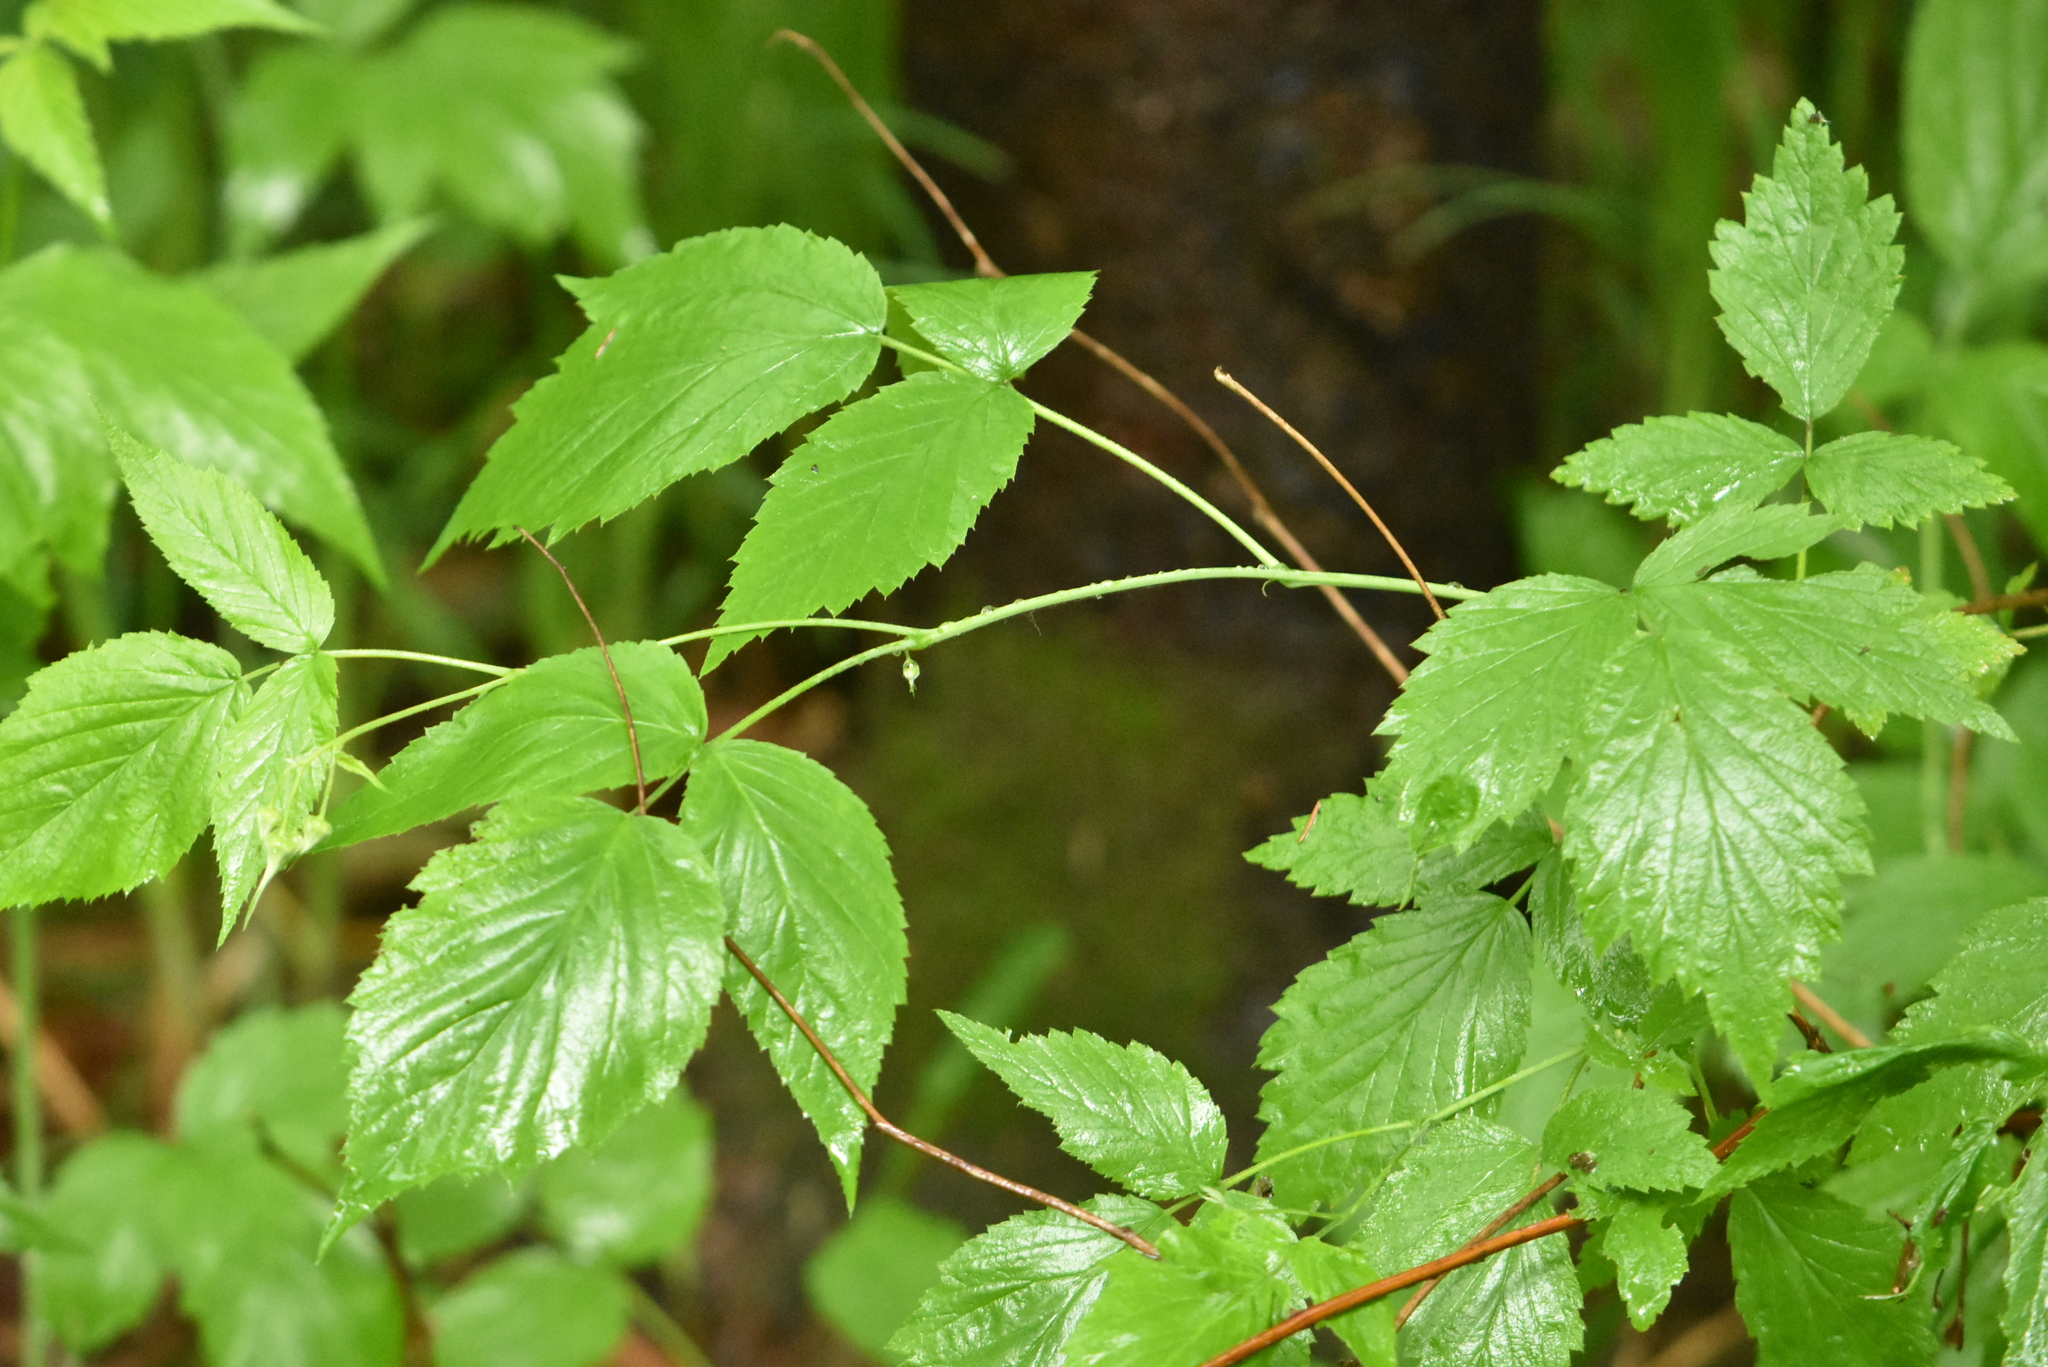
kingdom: Plantae
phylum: Tracheophyta
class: Magnoliopsida
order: Rosales
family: Rosaceae
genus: Rubus
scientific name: Rubus idaeus
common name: Raspberry
